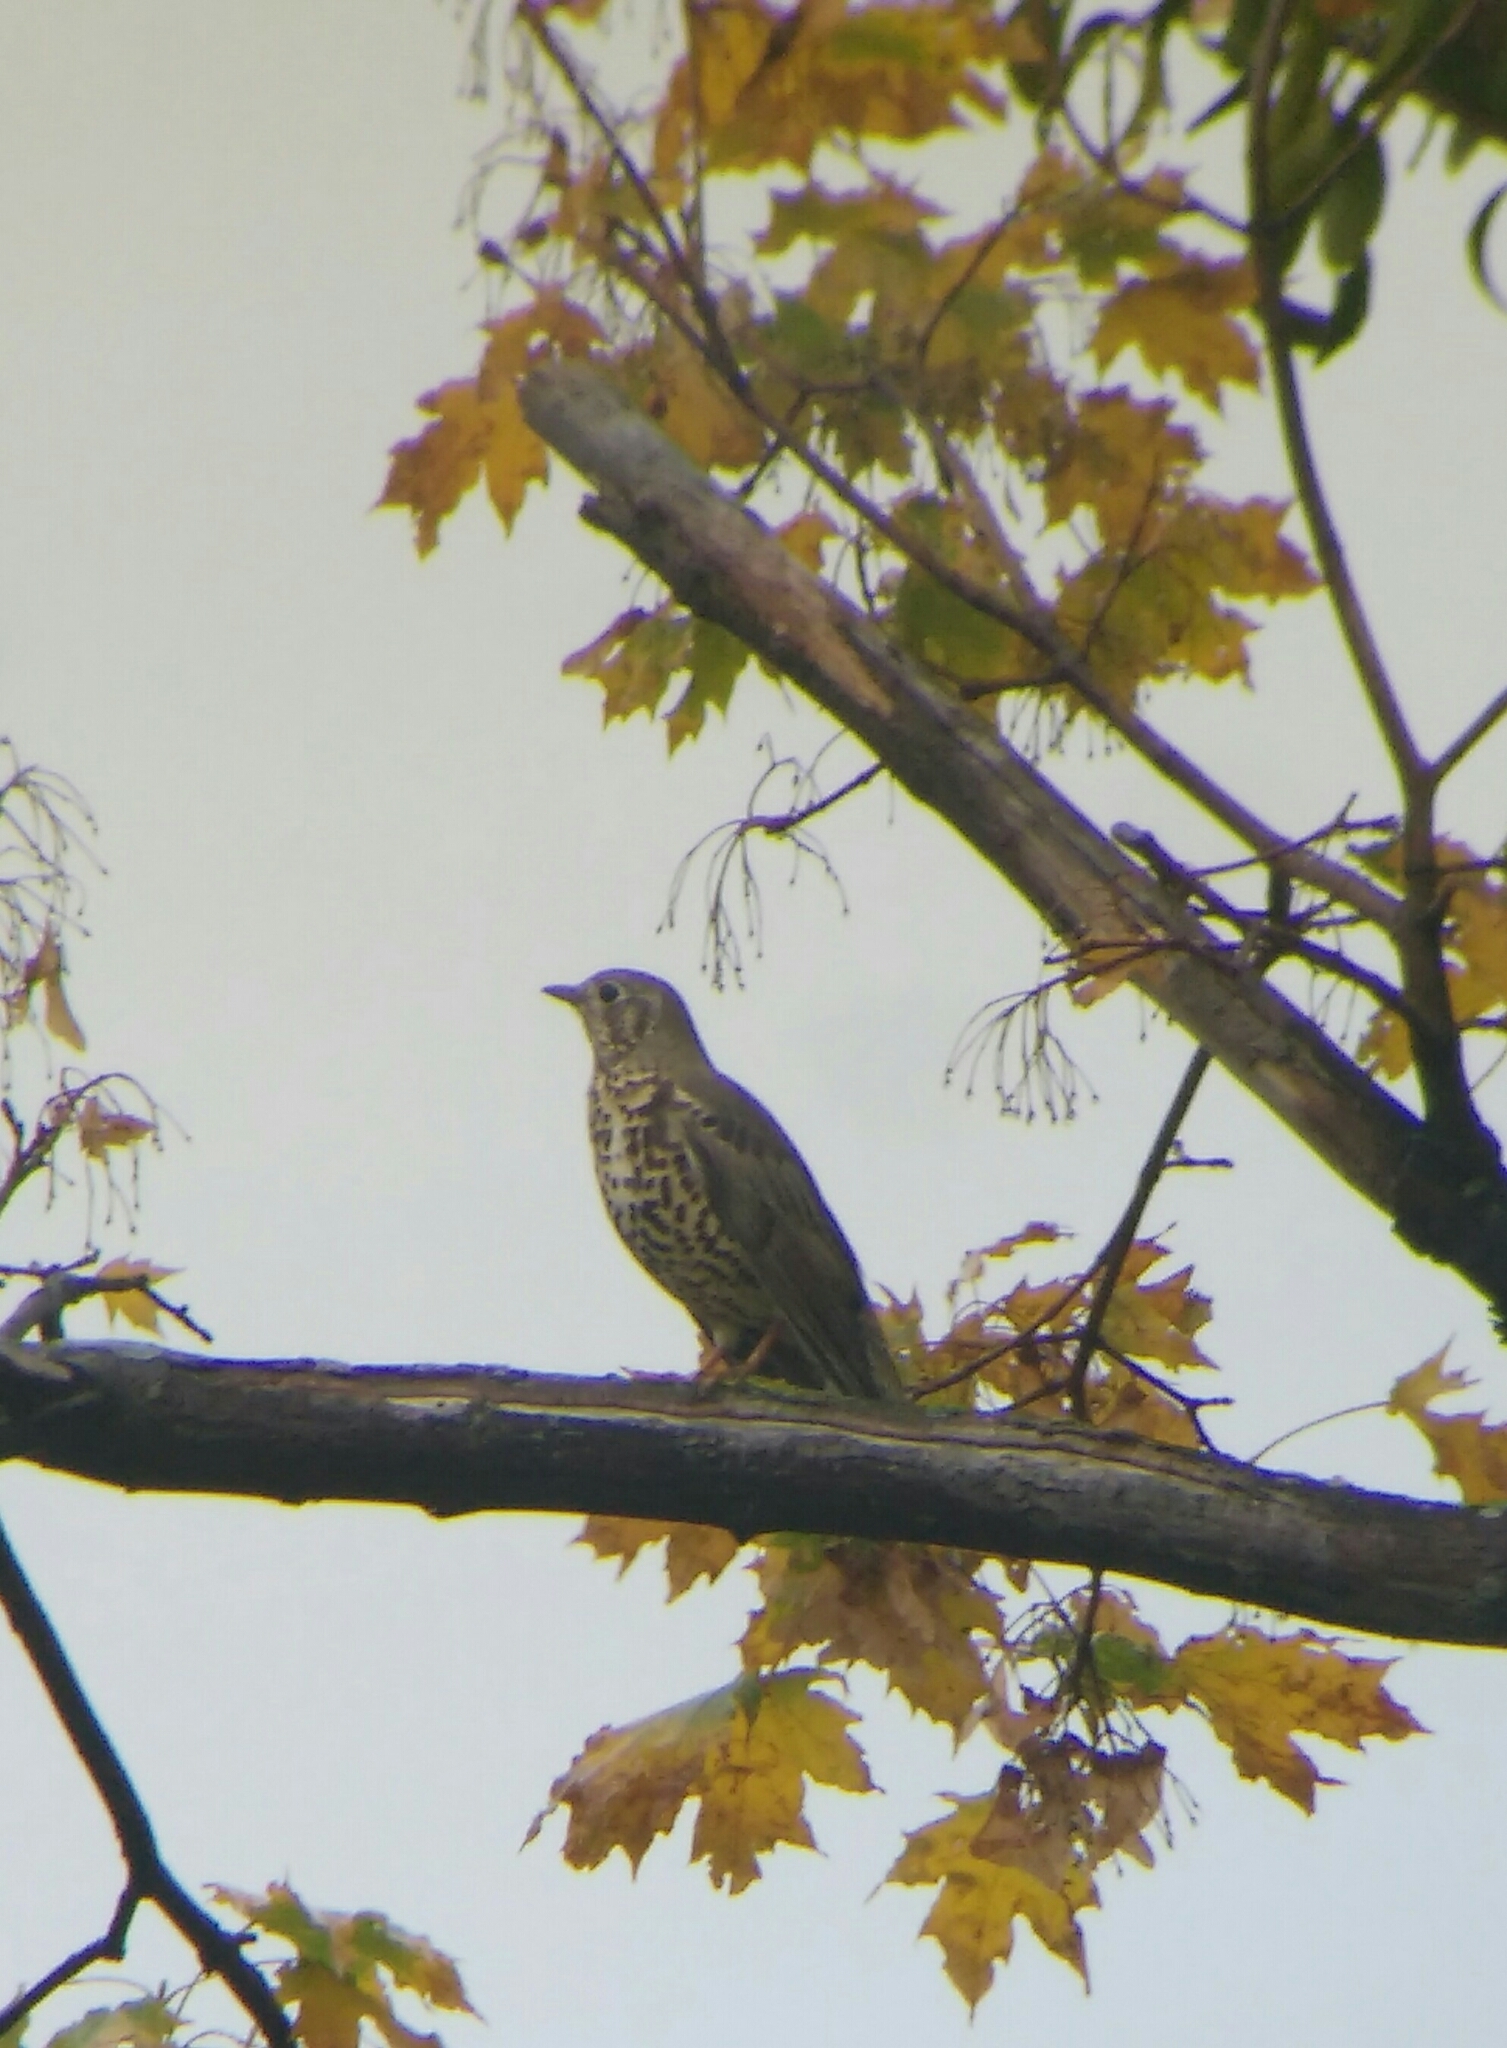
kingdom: Animalia
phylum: Chordata
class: Aves
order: Passeriformes
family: Turdidae
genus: Turdus
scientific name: Turdus viscivorus
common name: Mistle thrush
